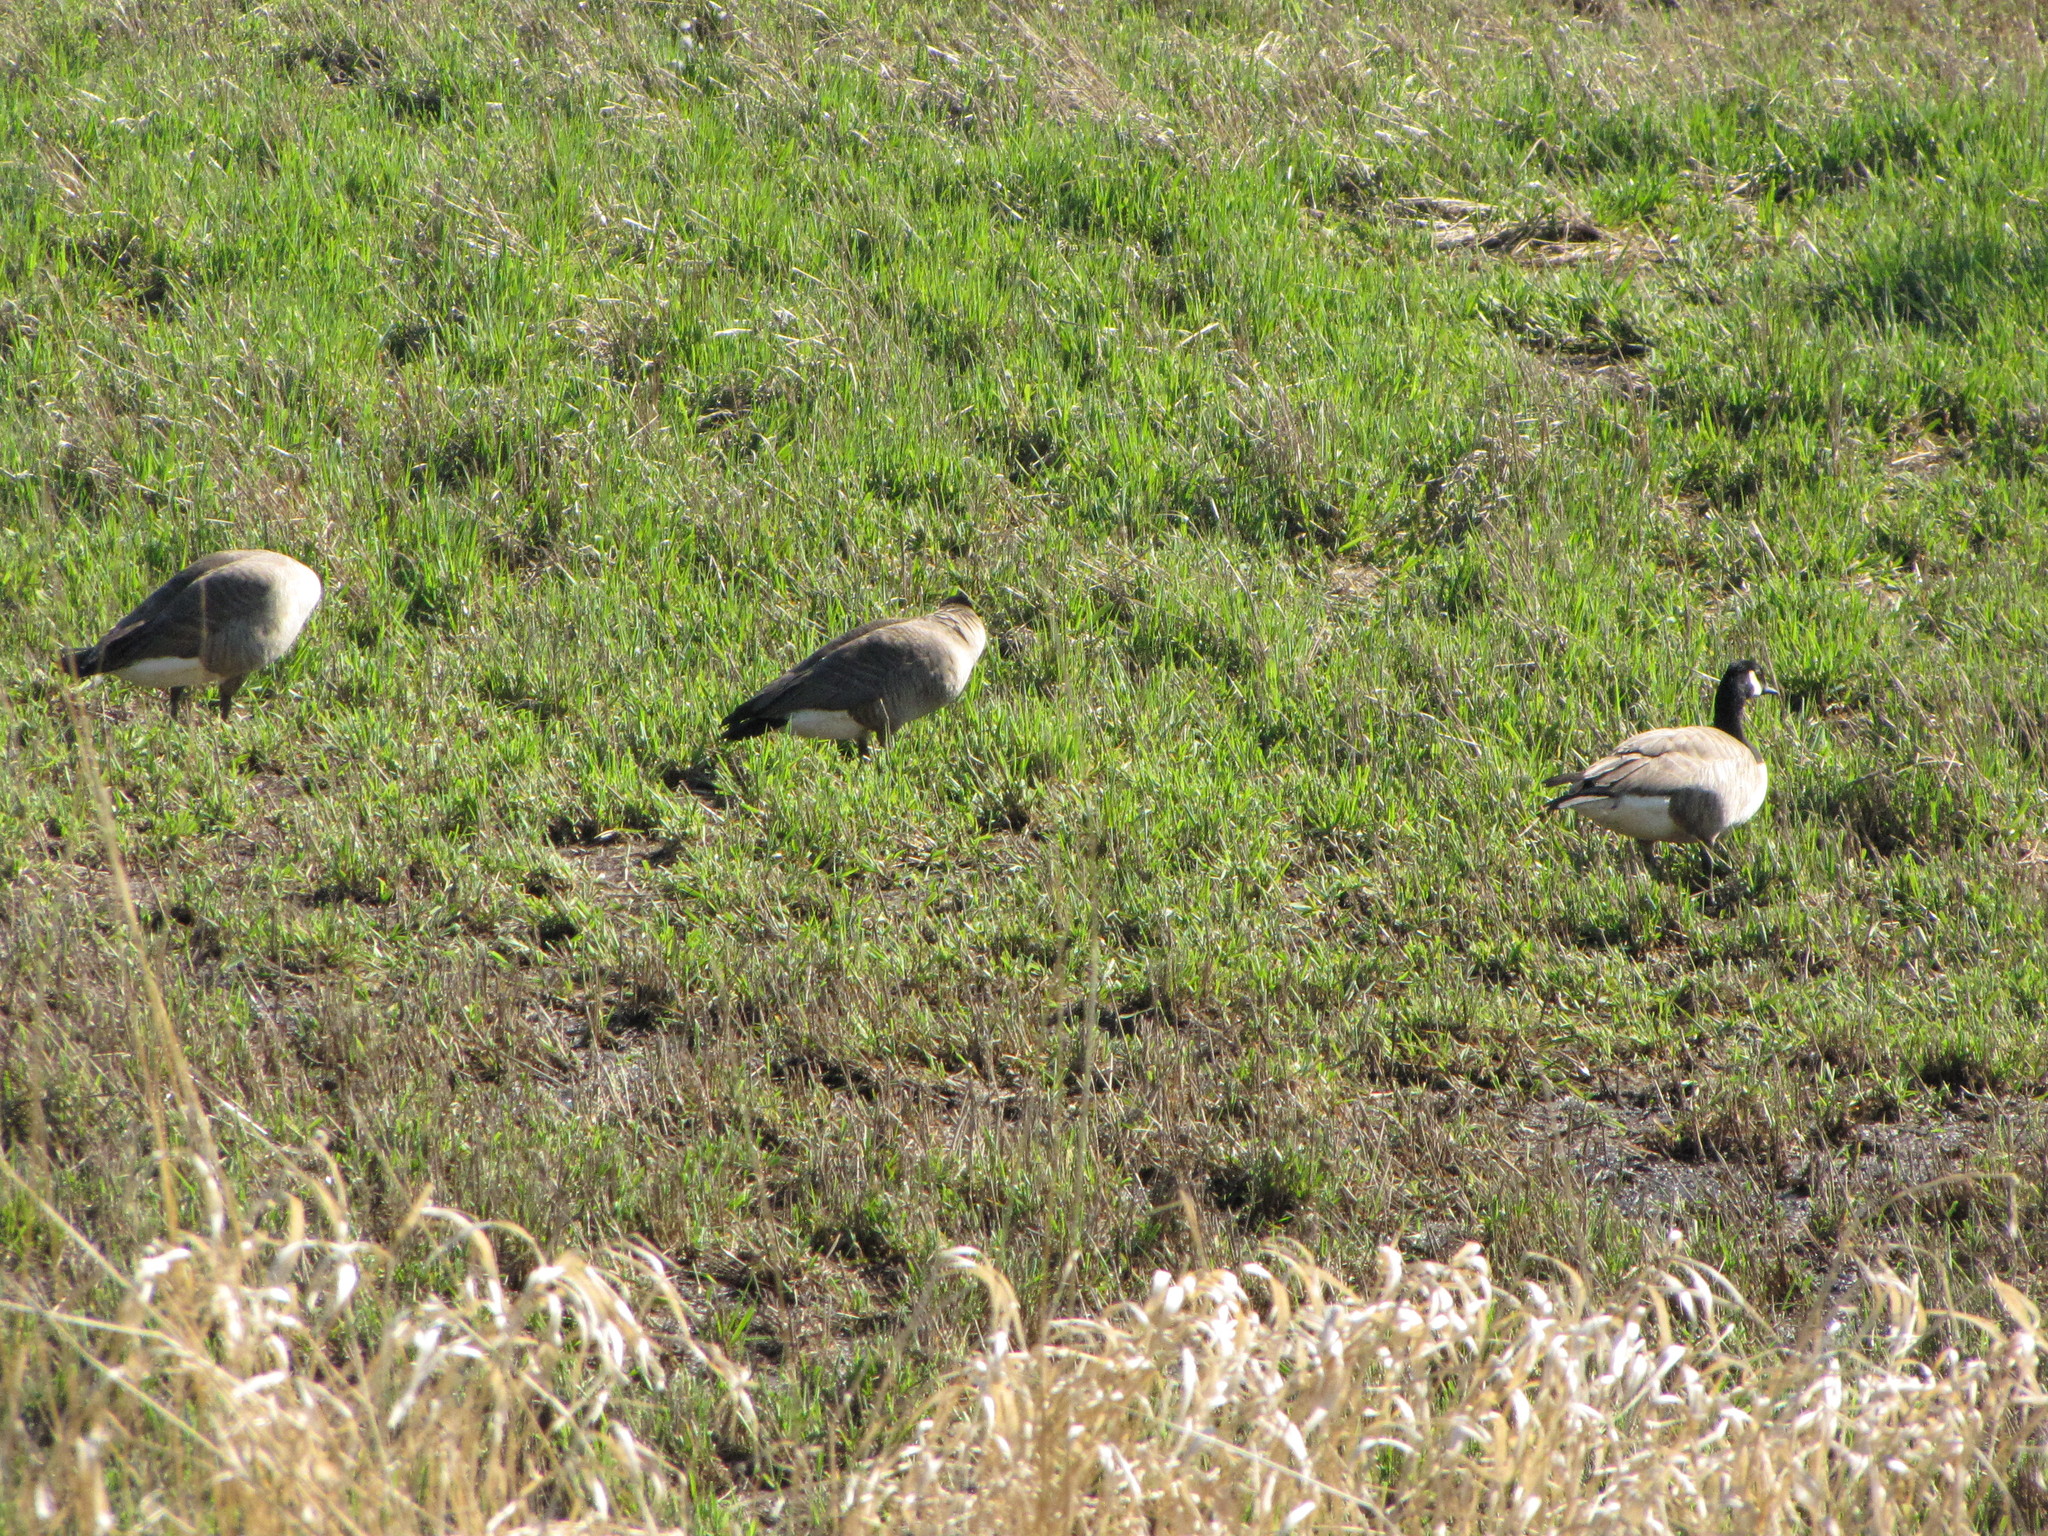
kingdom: Animalia
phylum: Chordata
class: Aves
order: Anseriformes
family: Anatidae
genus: Branta
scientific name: Branta canadensis
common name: Canada goose
